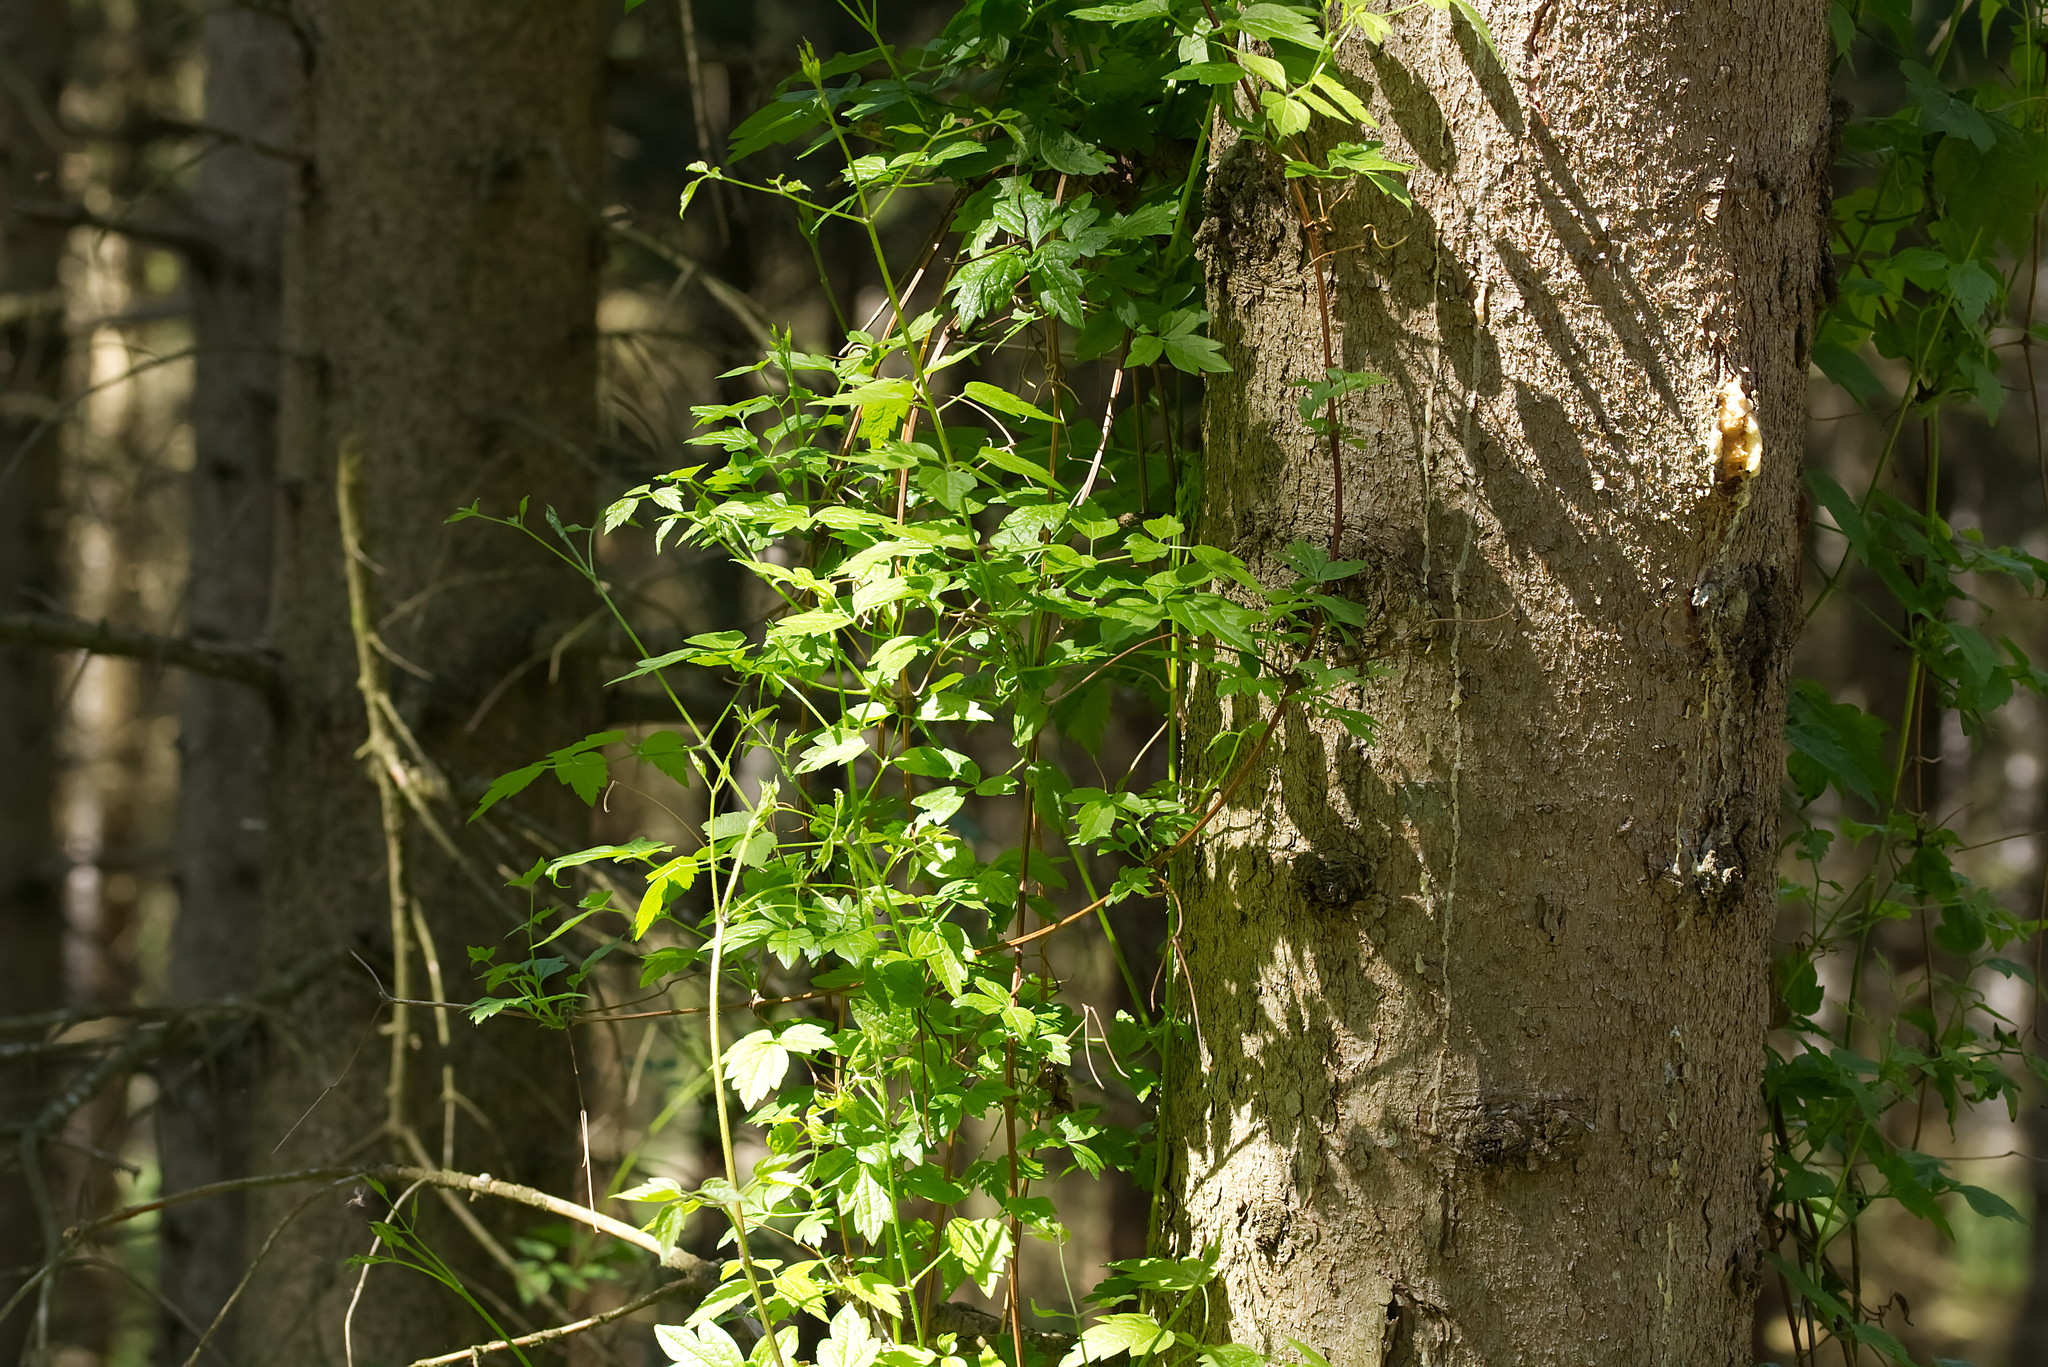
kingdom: Plantae
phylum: Tracheophyta
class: Magnoliopsida
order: Ranunculales
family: Ranunculaceae
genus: Clematis
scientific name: Clematis vitalba
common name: Evergreen clematis
